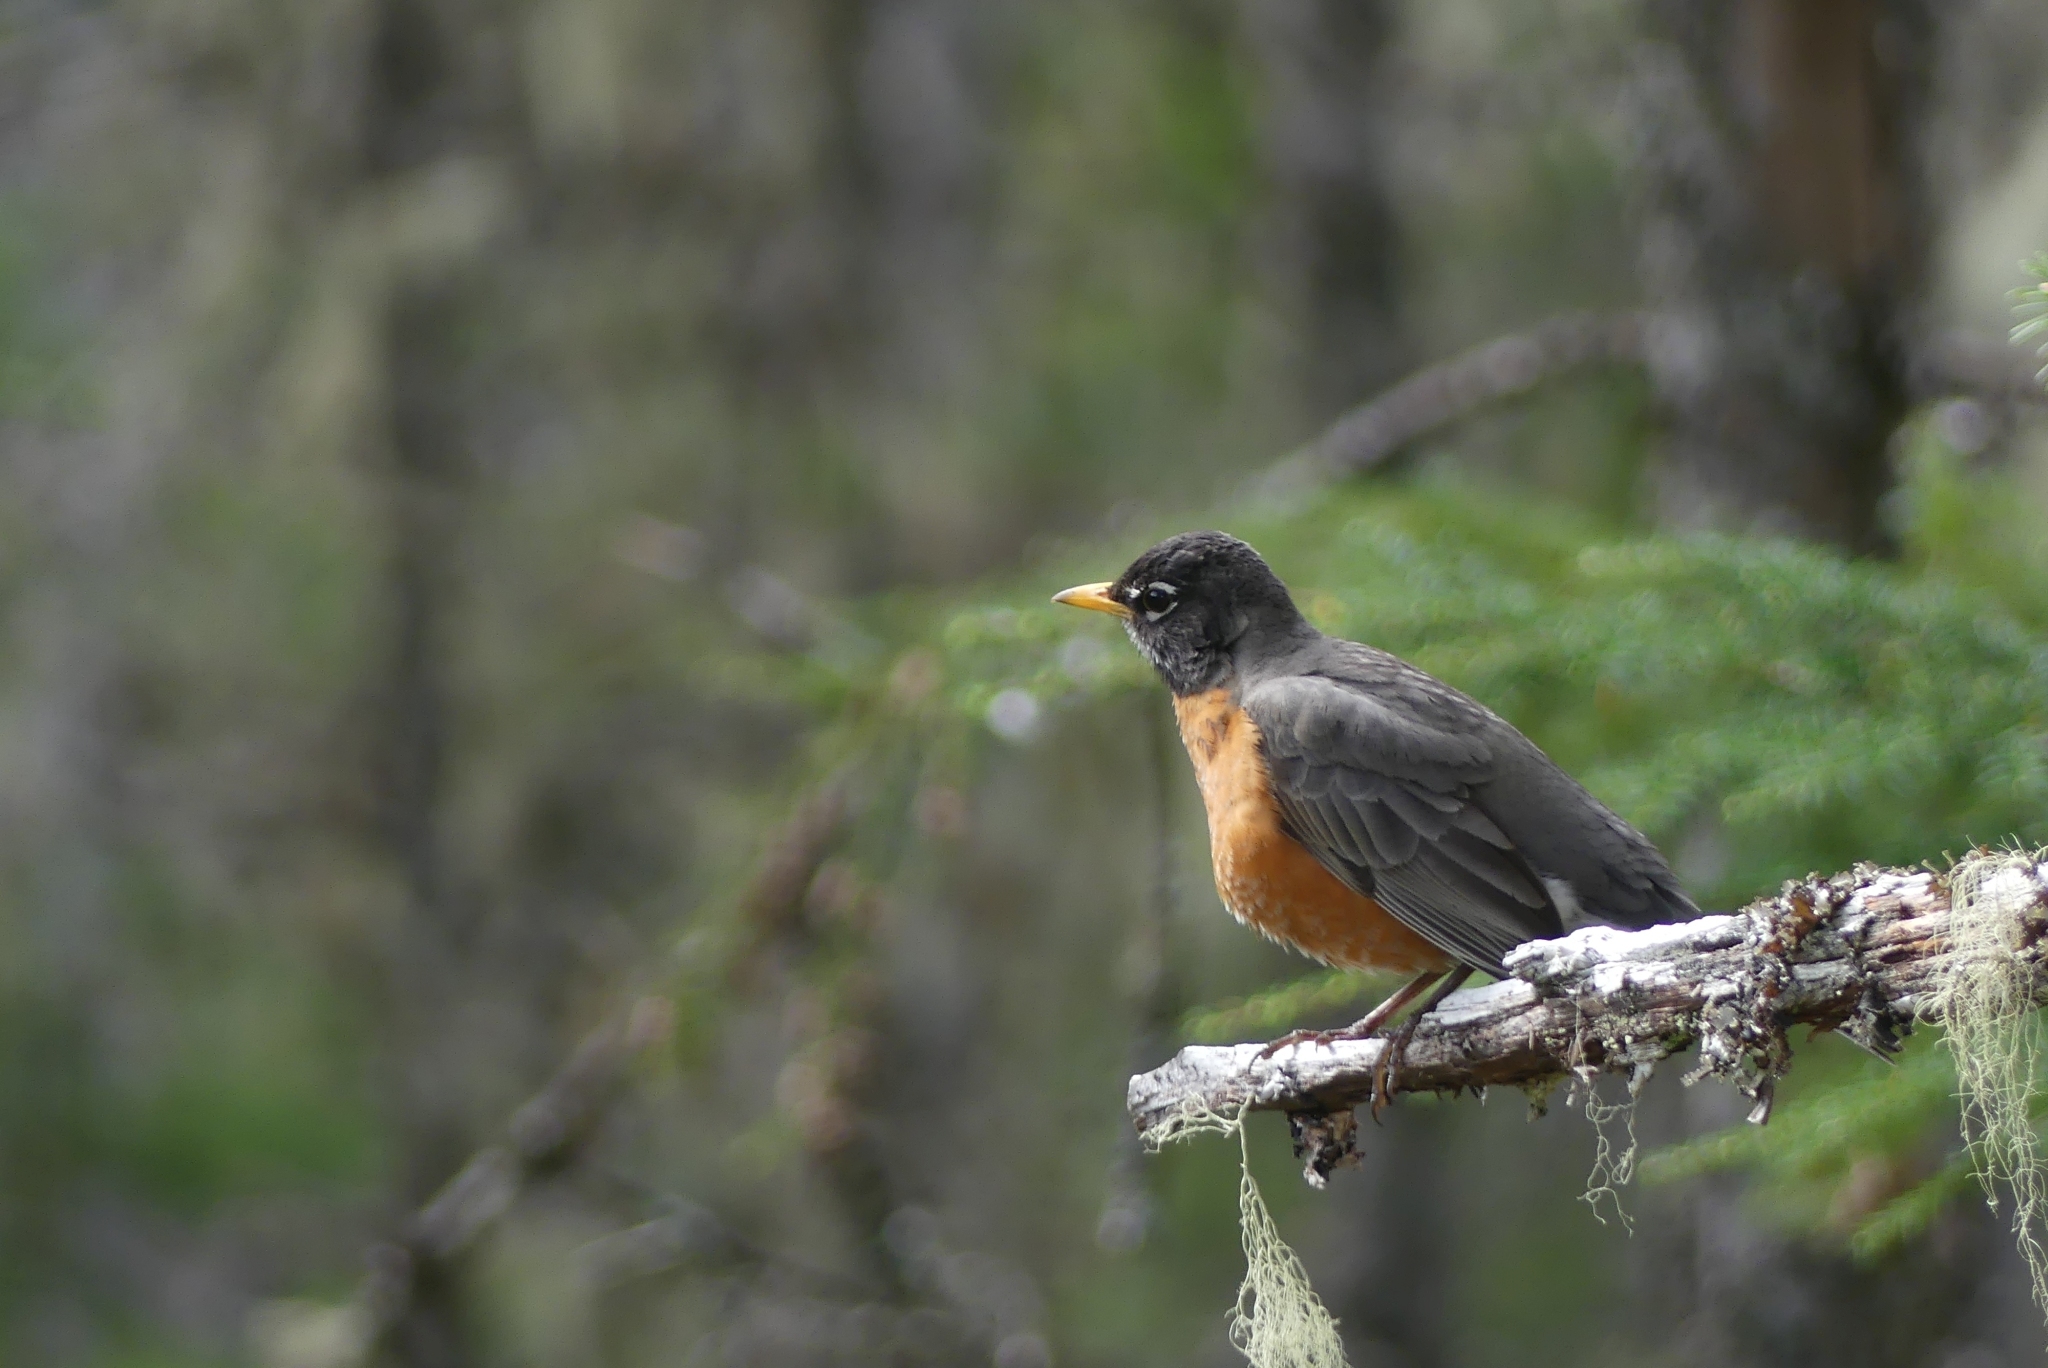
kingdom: Animalia
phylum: Chordata
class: Aves
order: Passeriformes
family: Turdidae
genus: Turdus
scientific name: Turdus migratorius
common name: American robin
